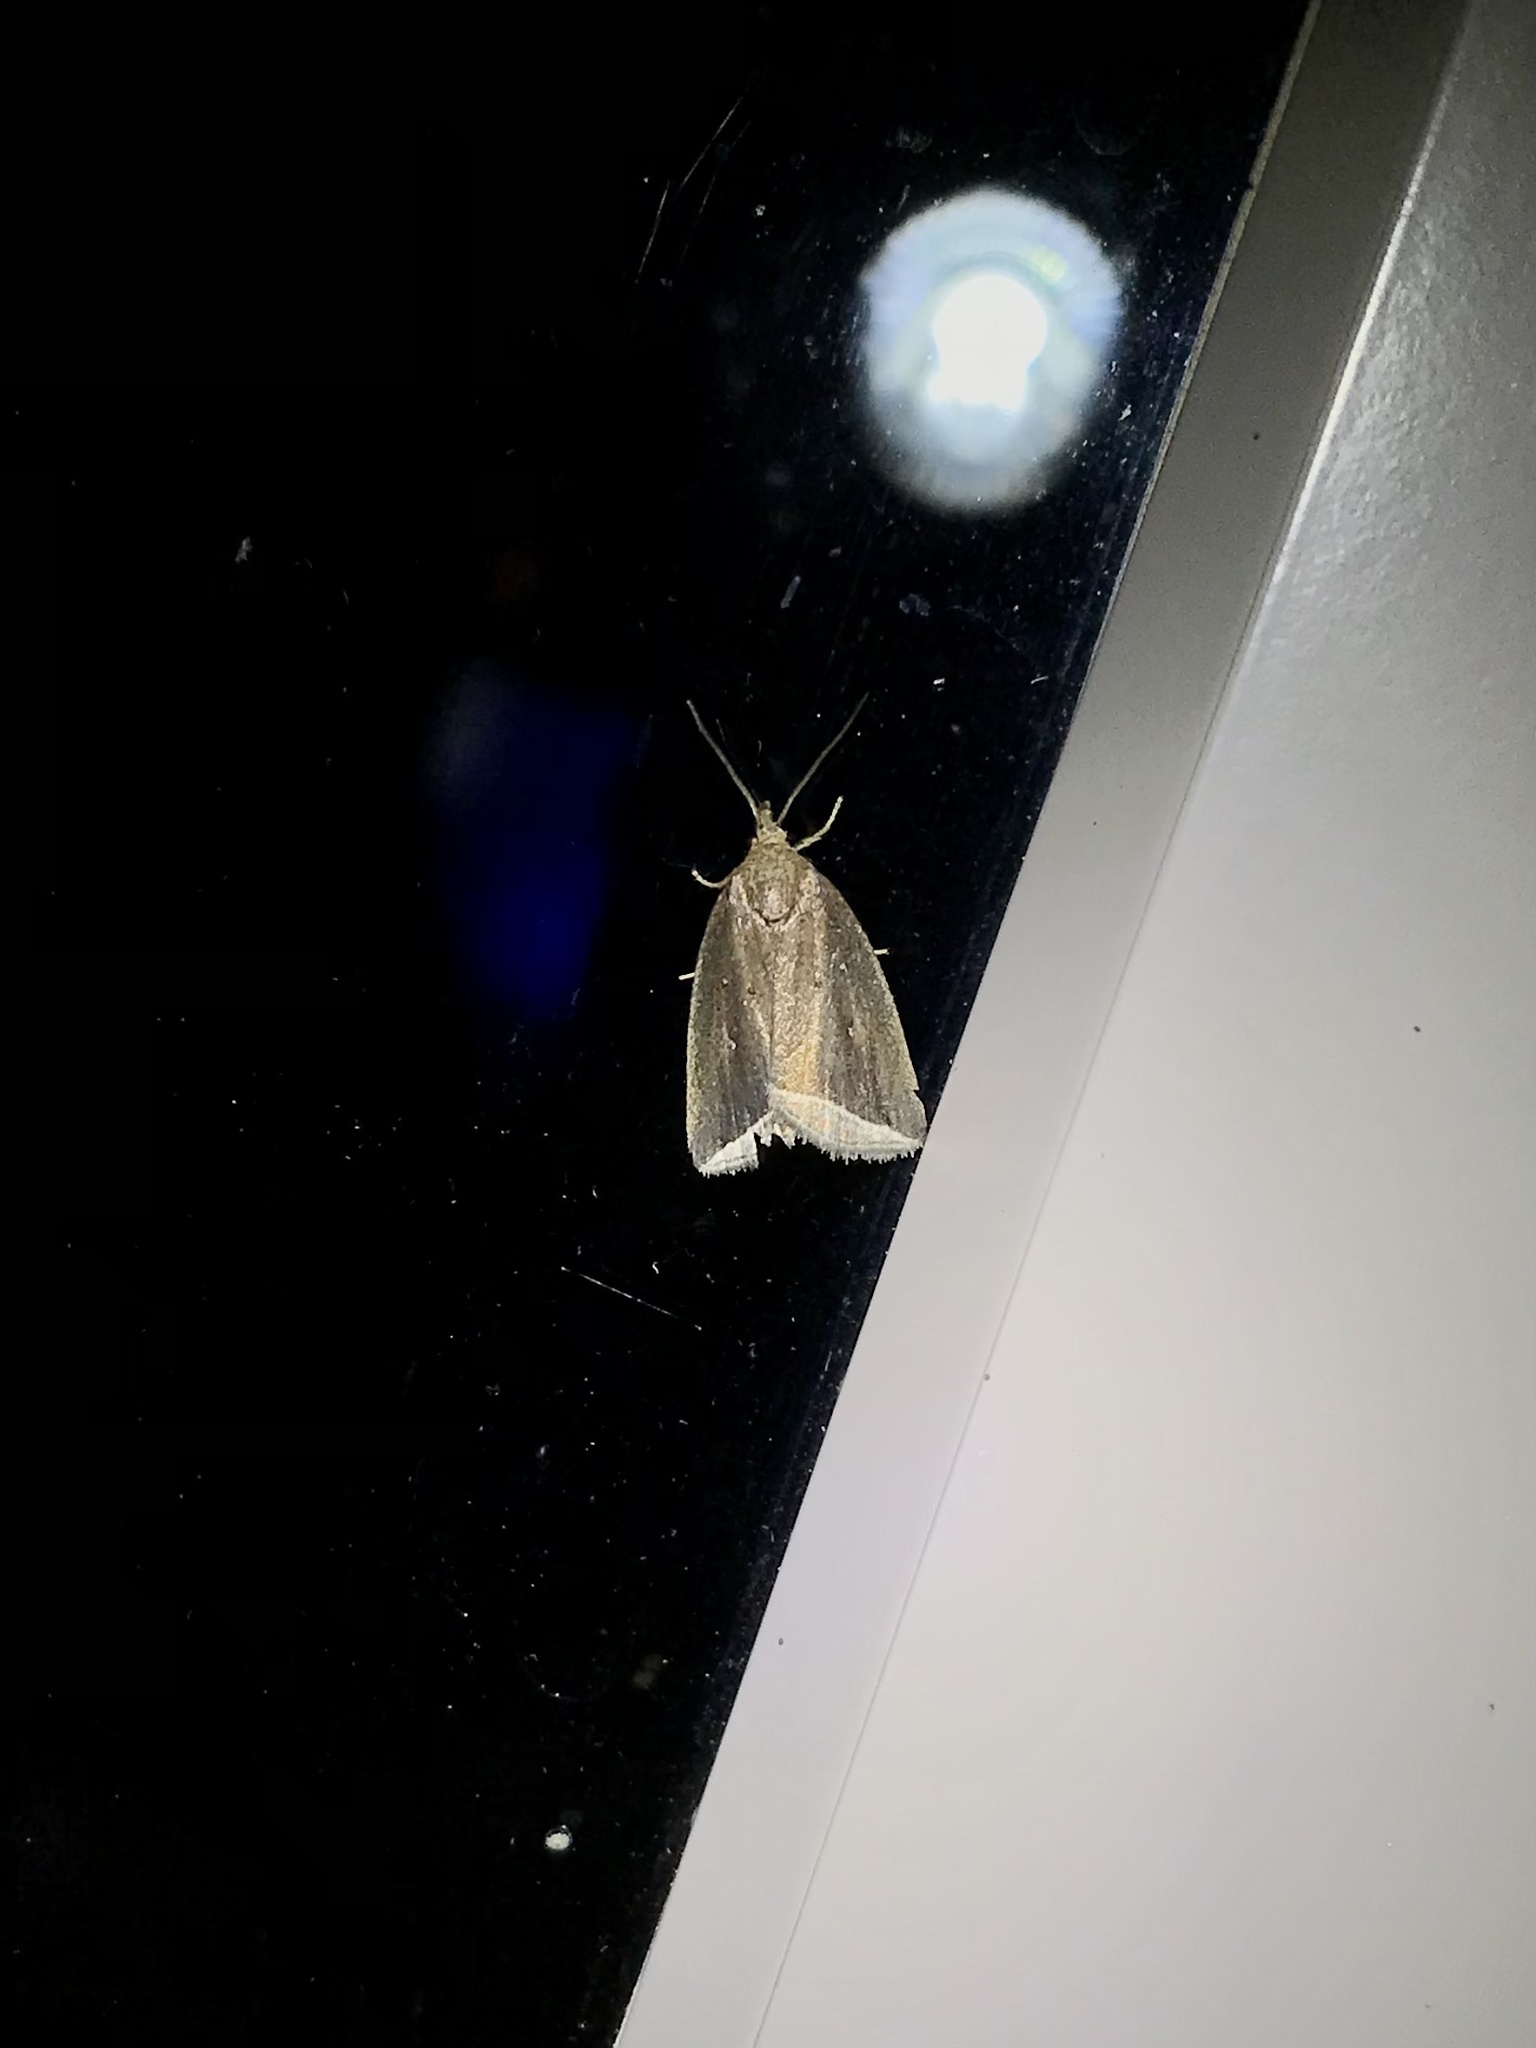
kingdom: Animalia
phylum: Arthropoda
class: Insecta
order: Lepidoptera
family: Erebidae
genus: Capis
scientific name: Capis curvata
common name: Curved halter moth
